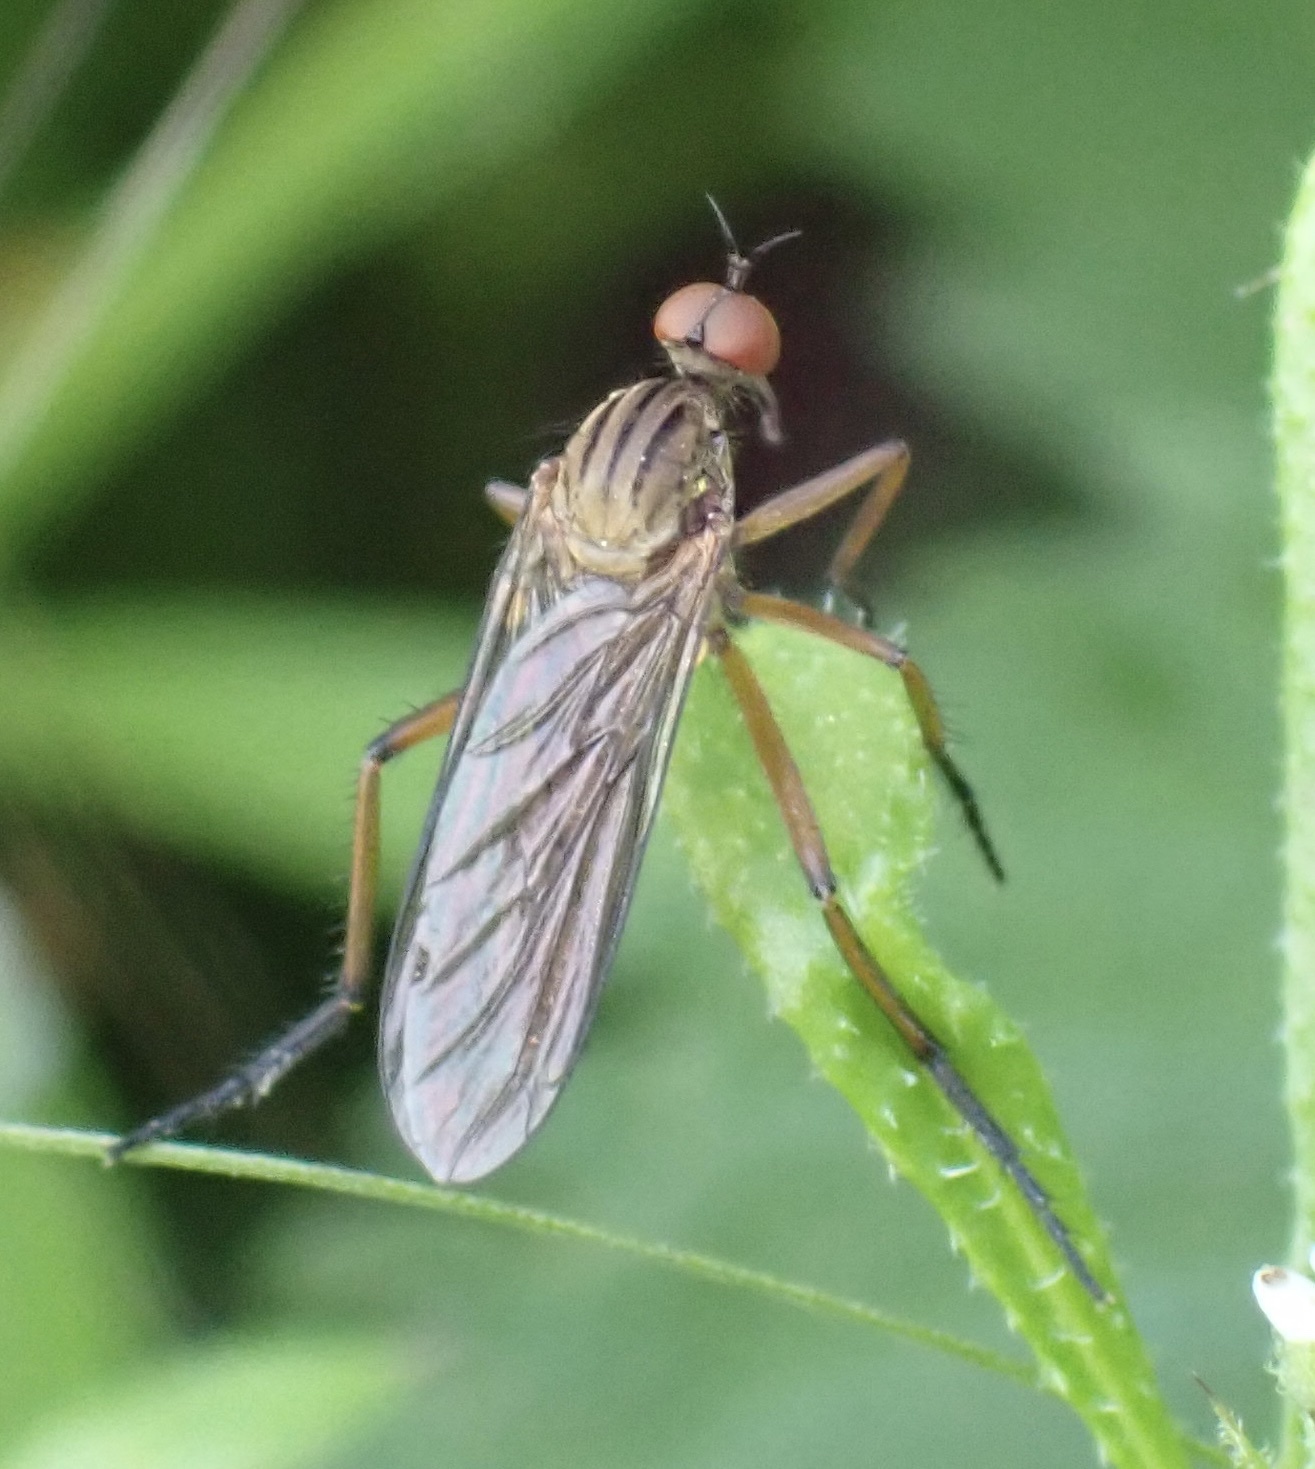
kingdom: Animalia
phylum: Arthropoda
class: Insecta
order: Diptera
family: Empididae
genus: Empis
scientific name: Empis livida
